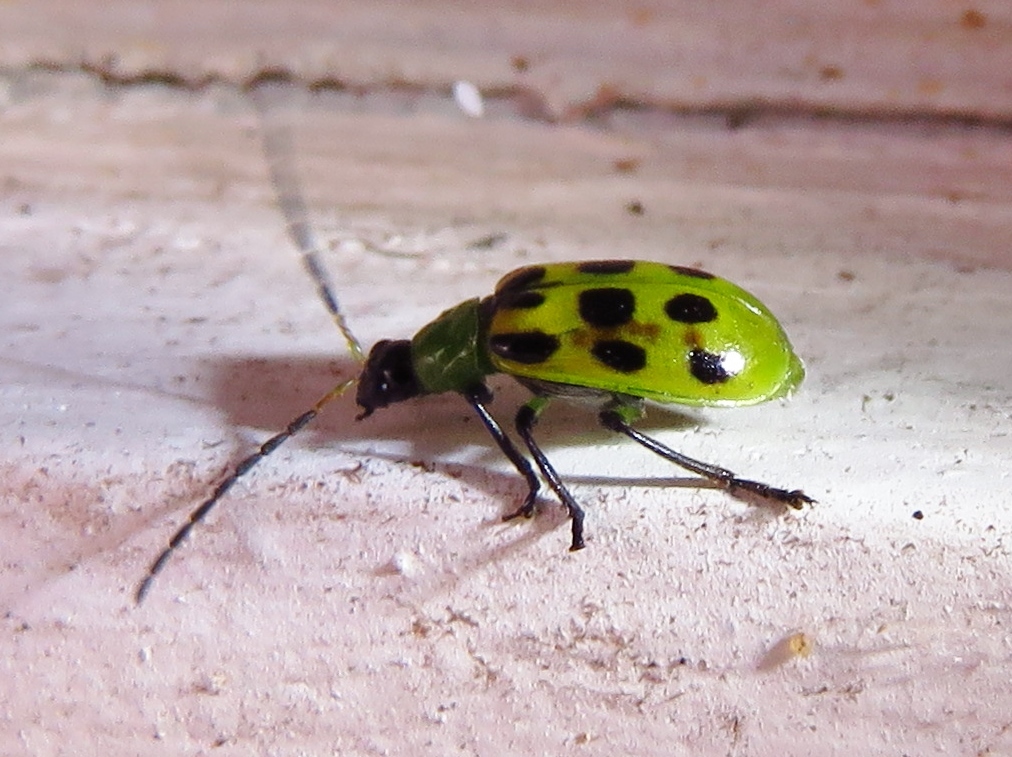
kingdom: Animalia
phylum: Arthropoda
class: Insecta
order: Coleoptera
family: Chrysomelidae
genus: Diabrotica
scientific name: Diabrotica undecimpunctata
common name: Spotted cucumber beetle
